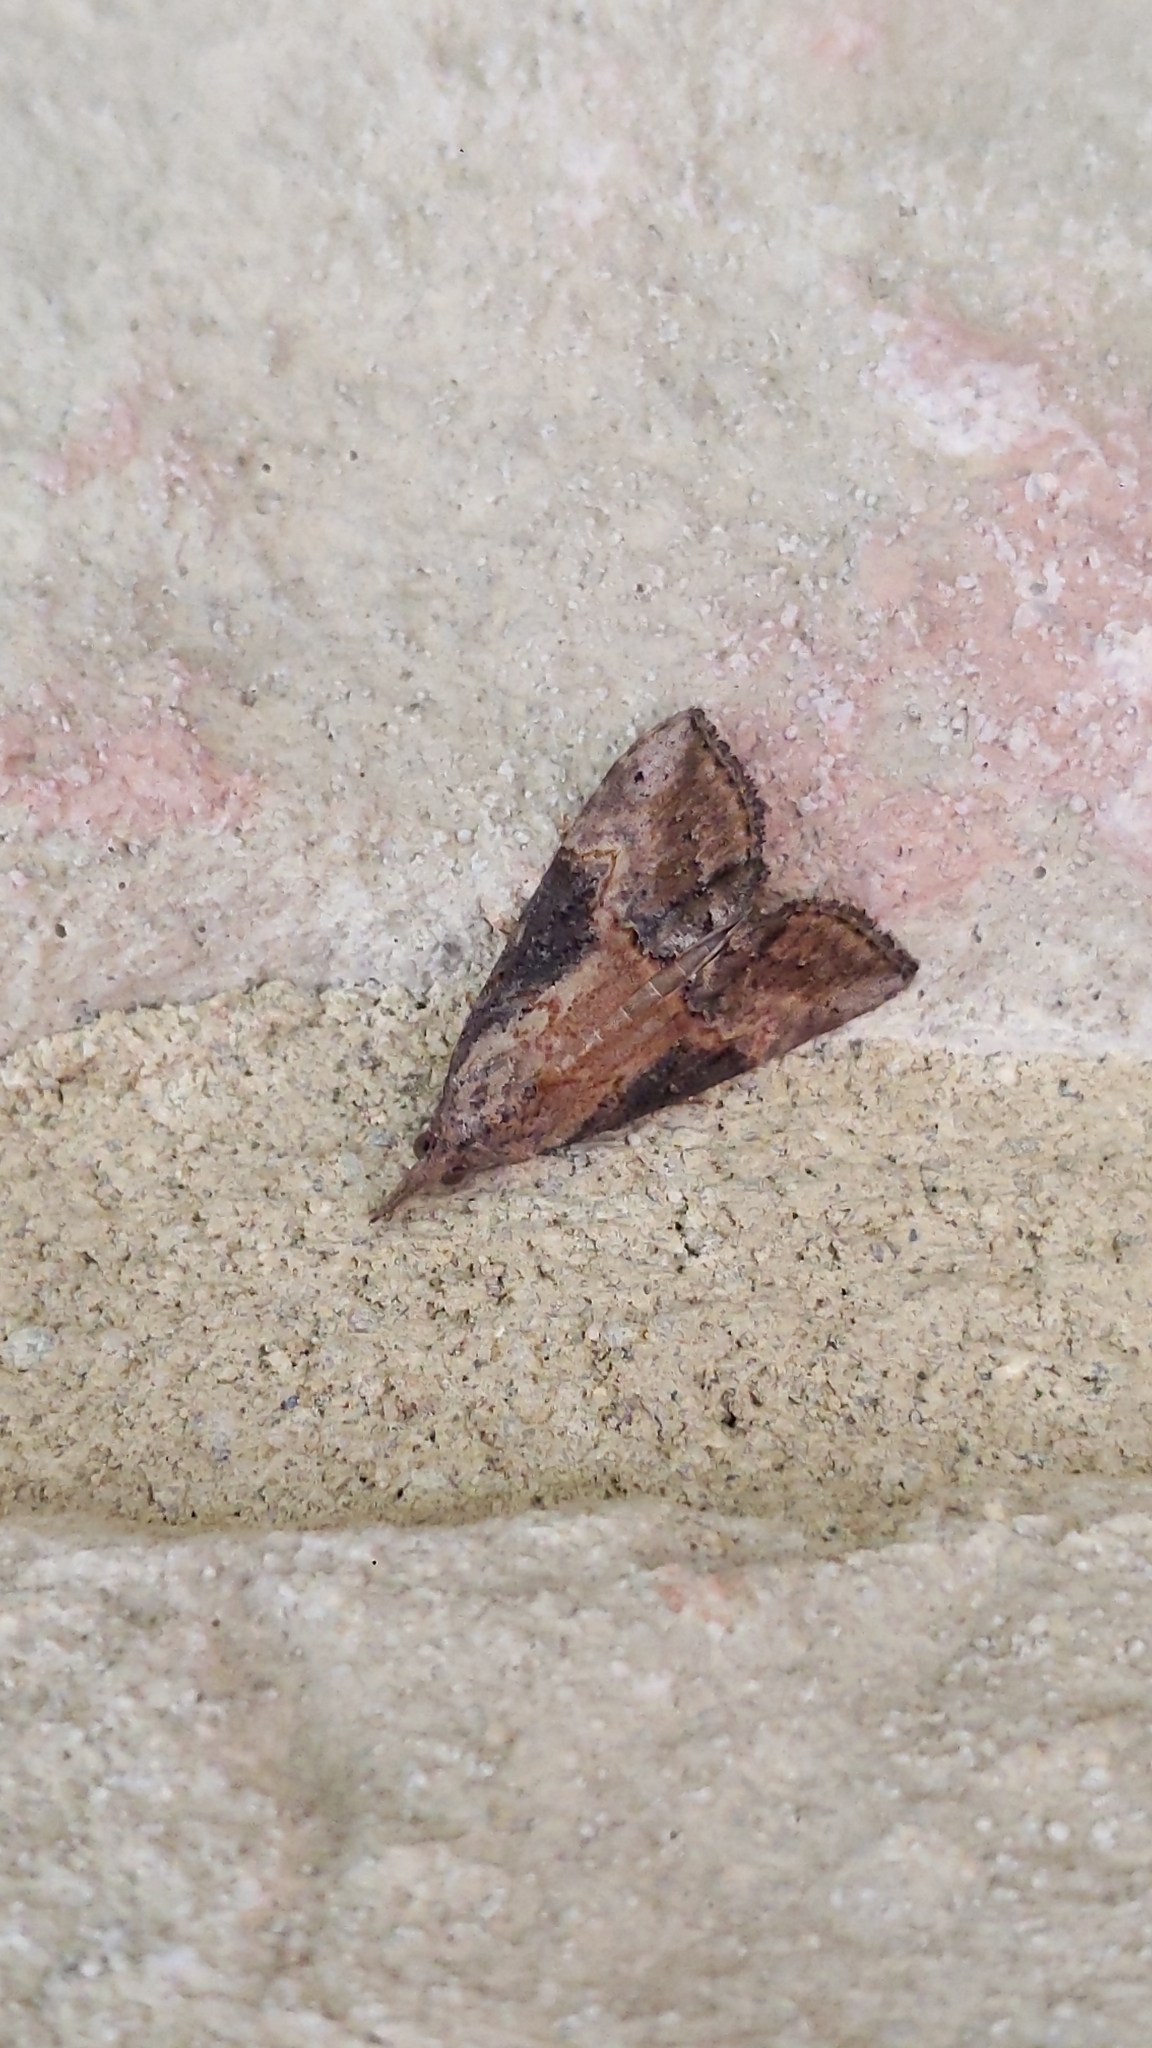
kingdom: Animalia
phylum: Arthropoda
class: Insecta
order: Lepidoptera
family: Erebidae
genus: Hypena
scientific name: Hypena scabra
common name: Green cloverworm
